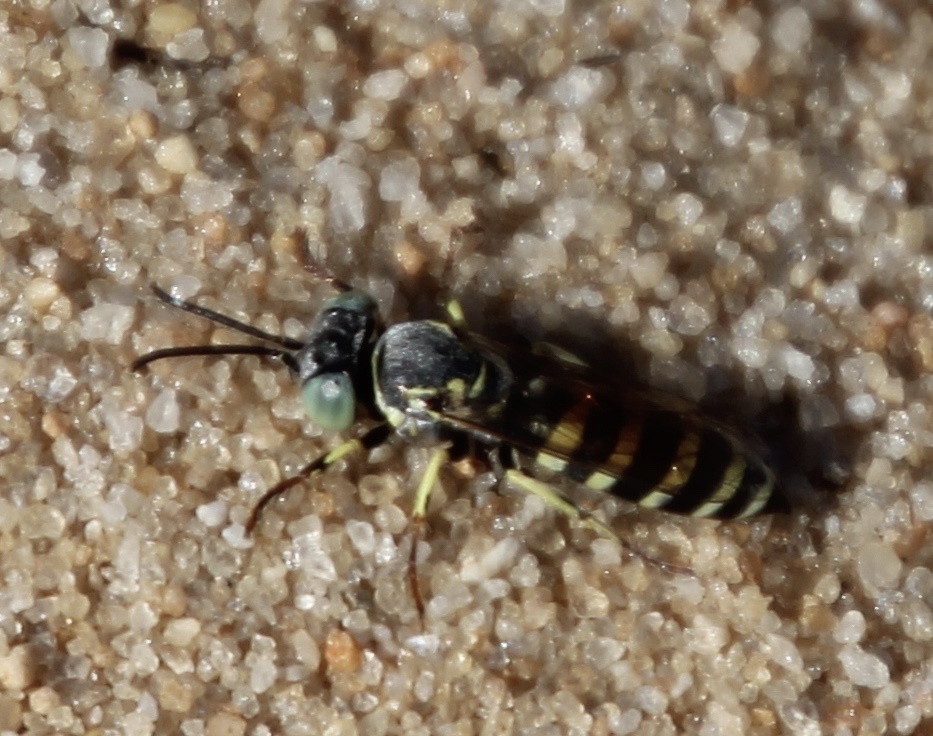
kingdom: Animalia
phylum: Arthropoda
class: Insecta
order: Hymenoptera
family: Crabronidae
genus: Microbembex
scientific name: Microbembex monodonta
